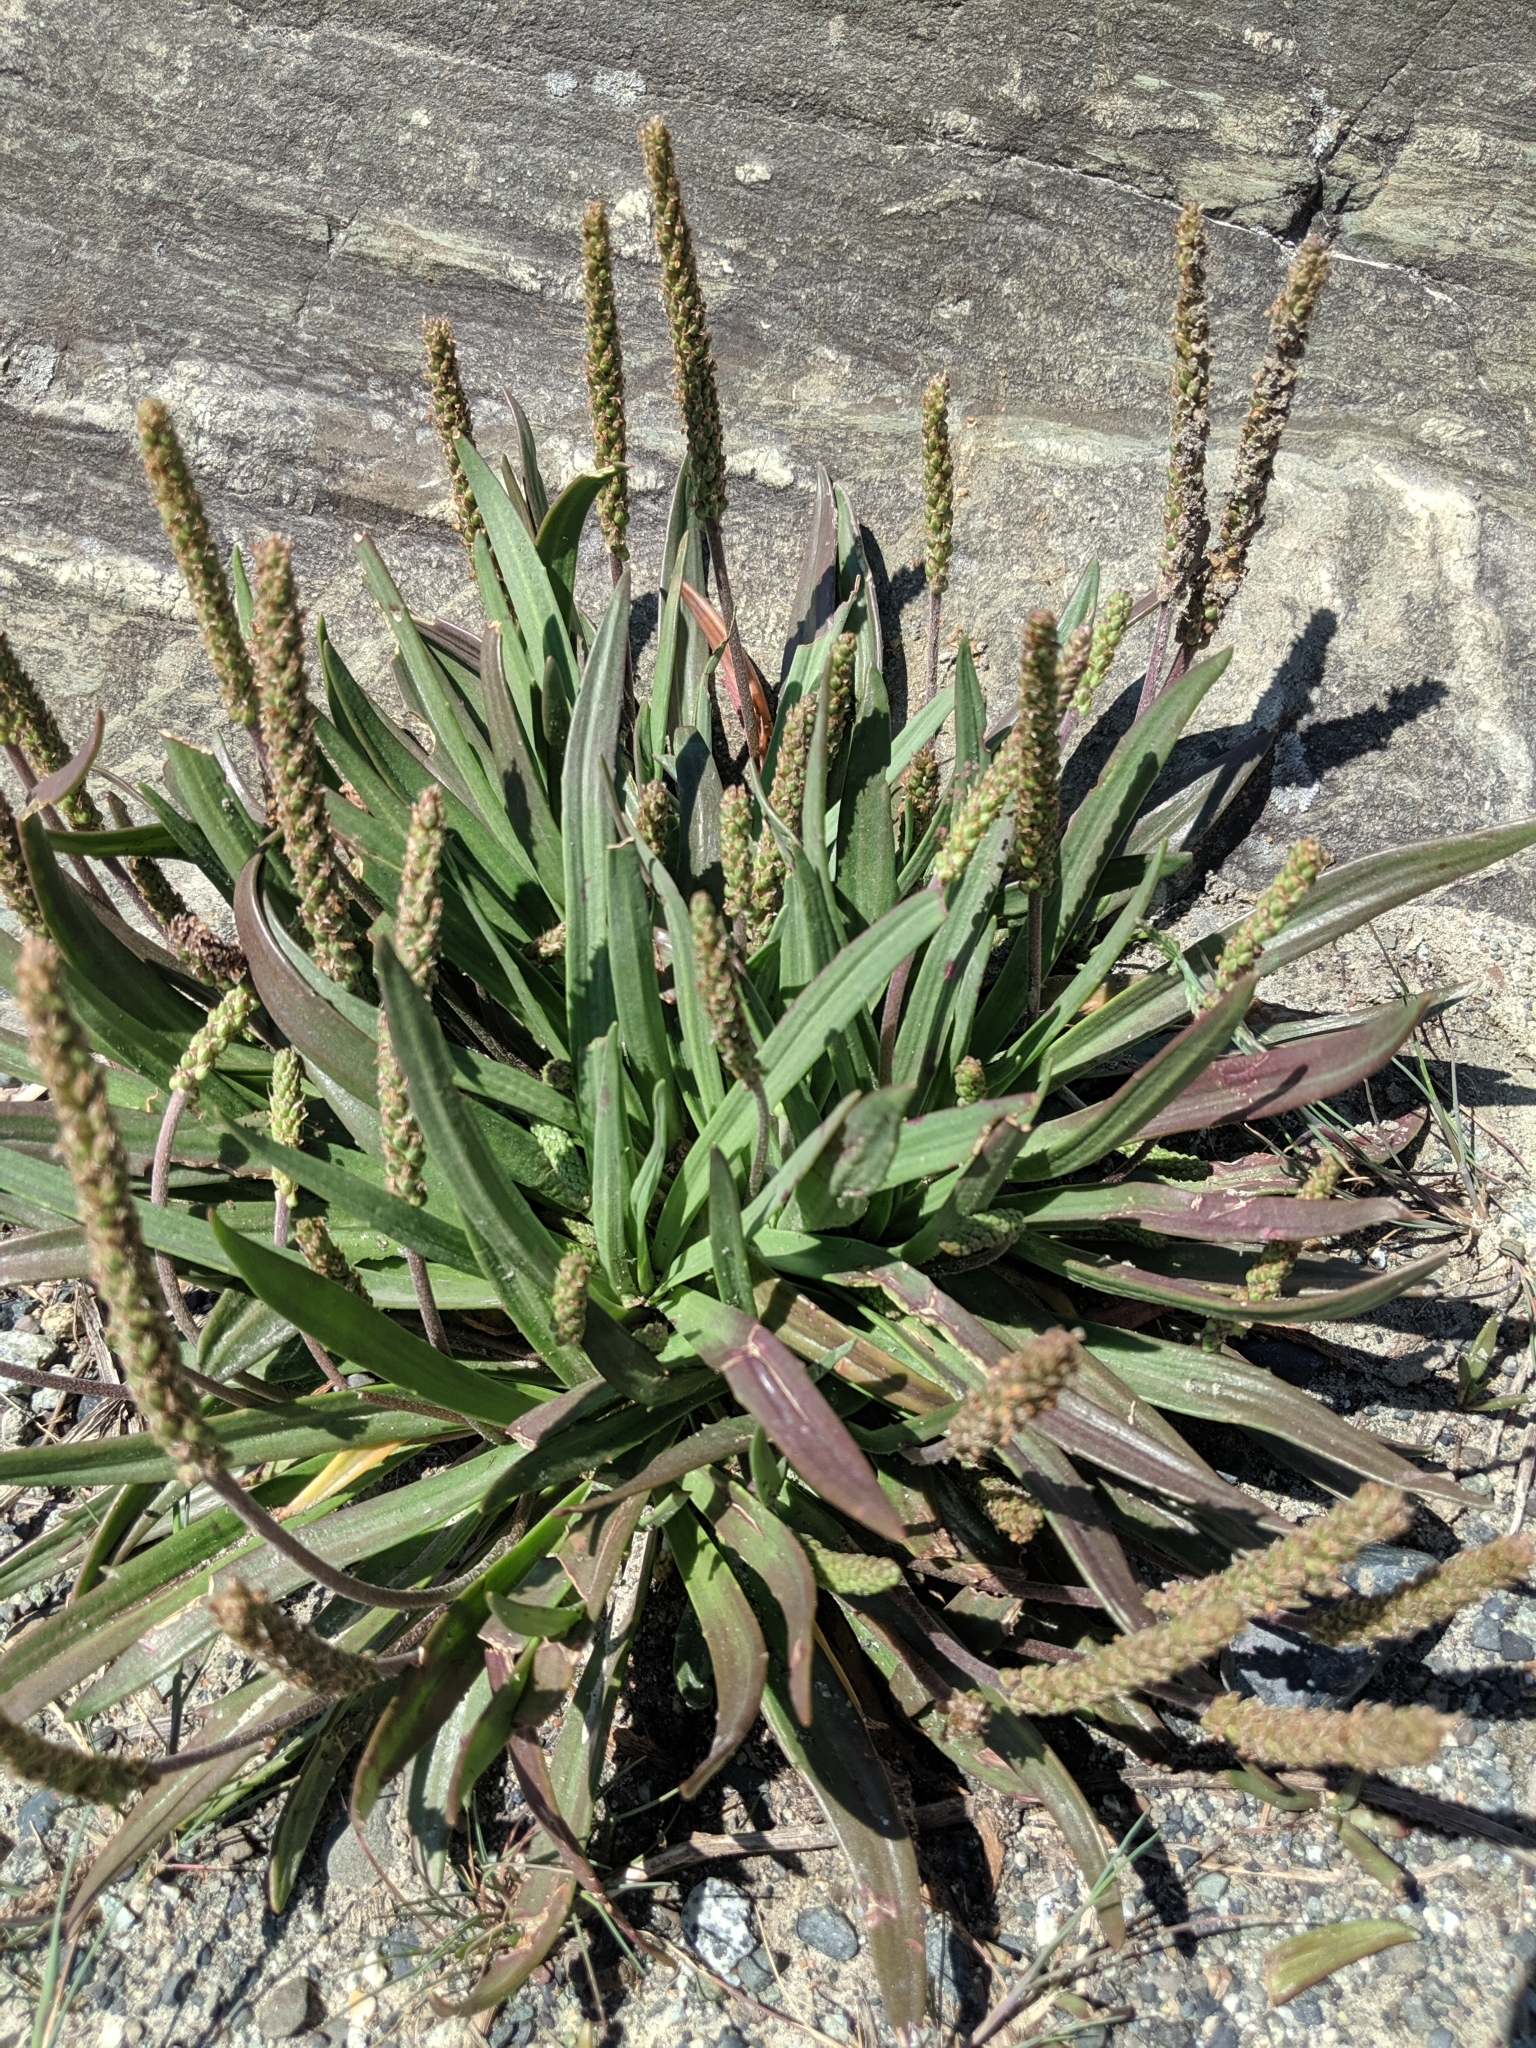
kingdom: Plantae
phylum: Tracheophyta
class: Magnoliopsida
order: Lamiales
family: Plantaginaceae
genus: Plantago
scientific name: Plantago maritima
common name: Sea plantain
